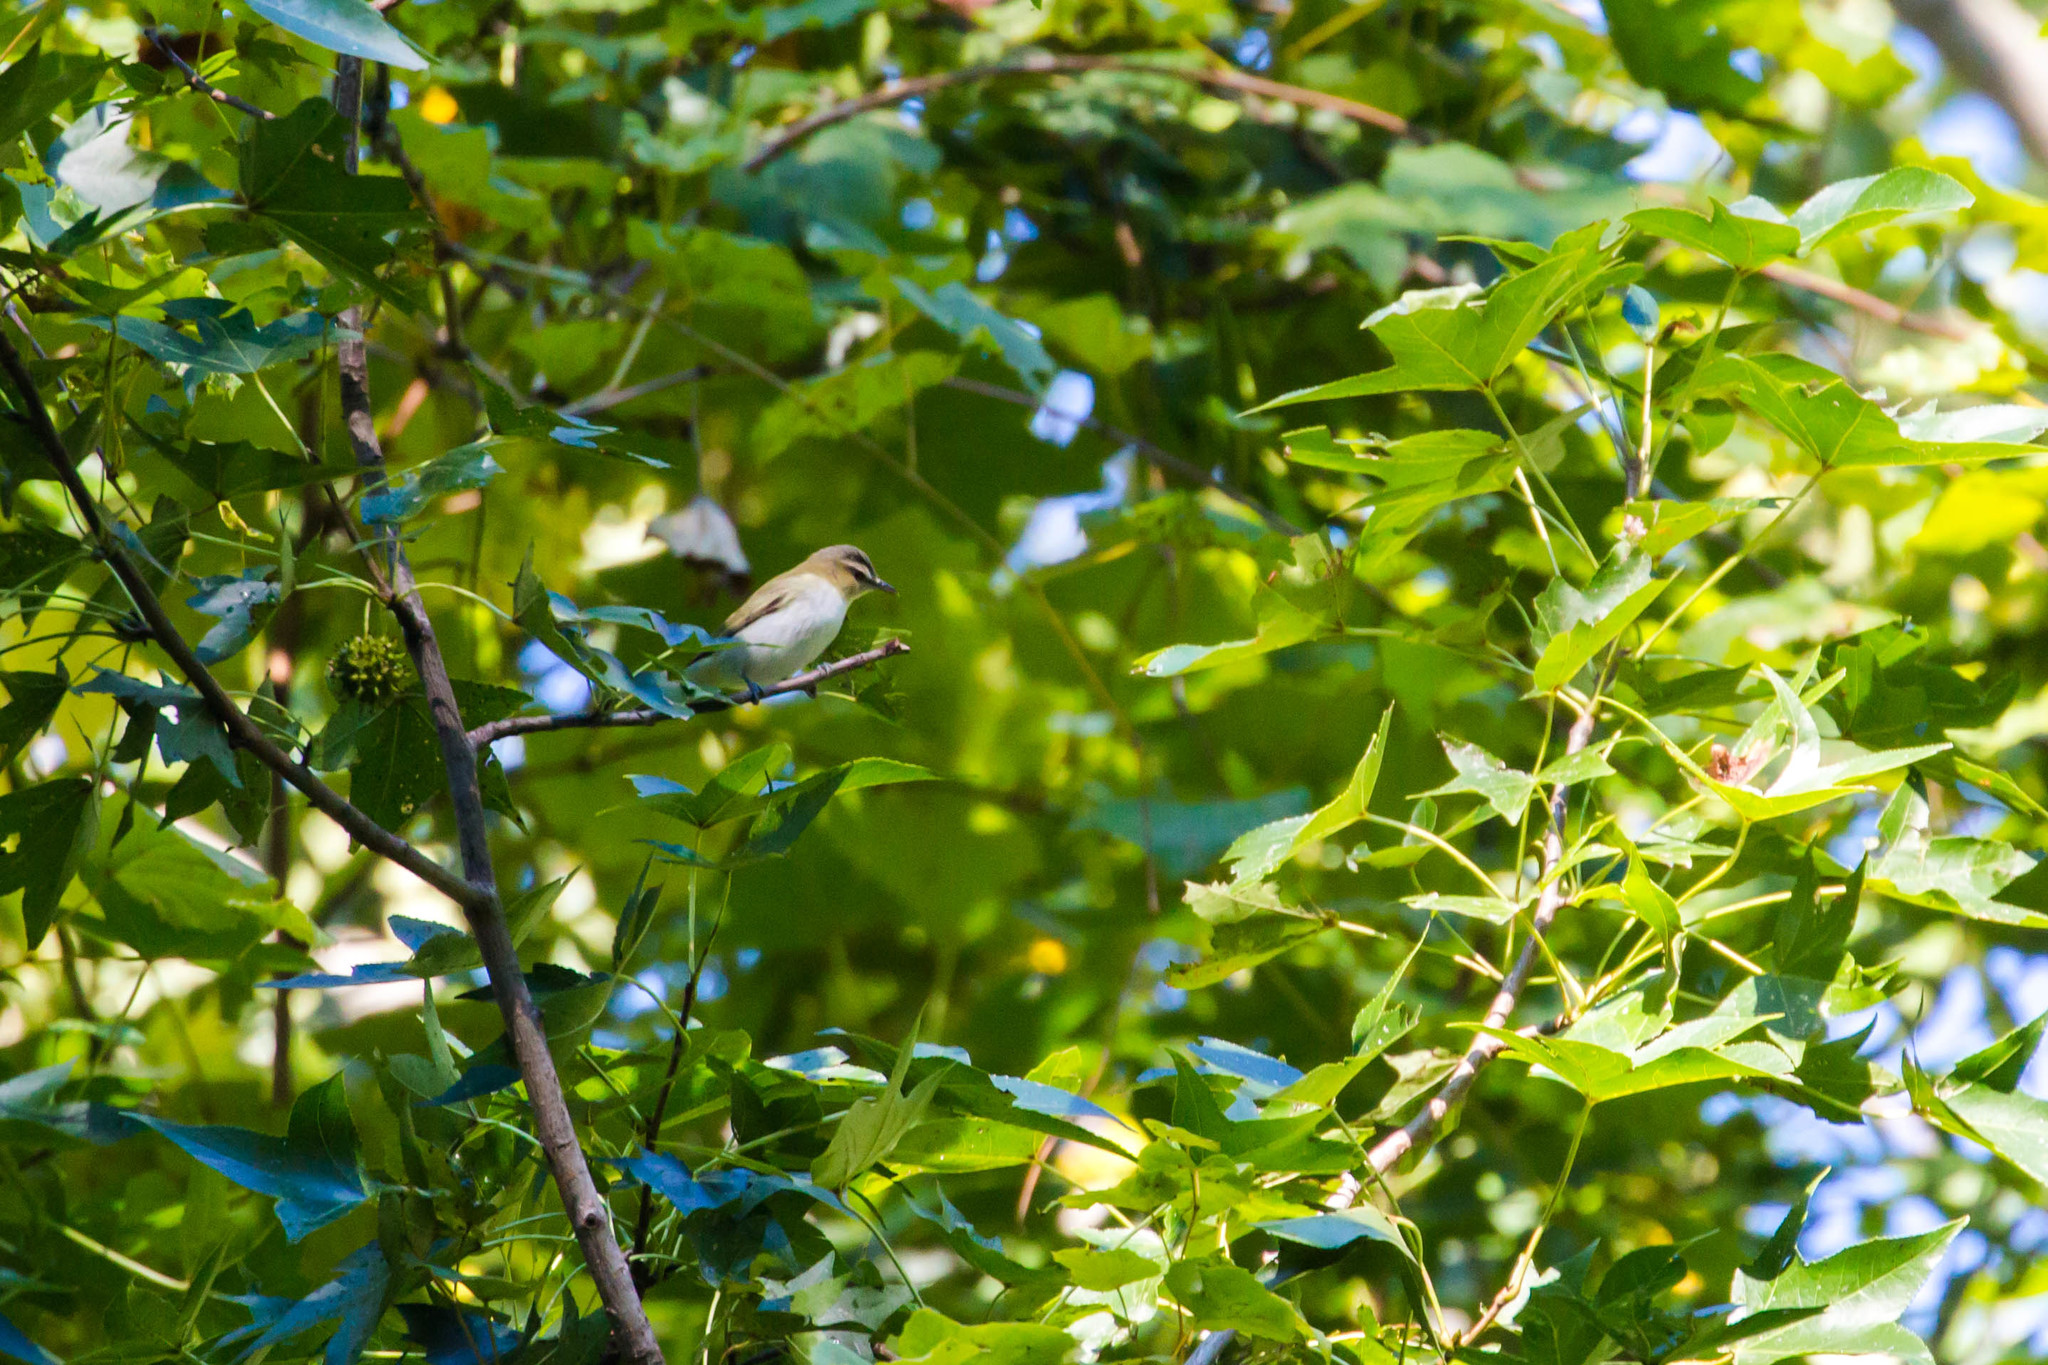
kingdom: Animalia
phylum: Chordata
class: Aves
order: Passeriformes
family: Vireonidae
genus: Vireo
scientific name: Vireo olivaceus
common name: Red-eyed vireo
